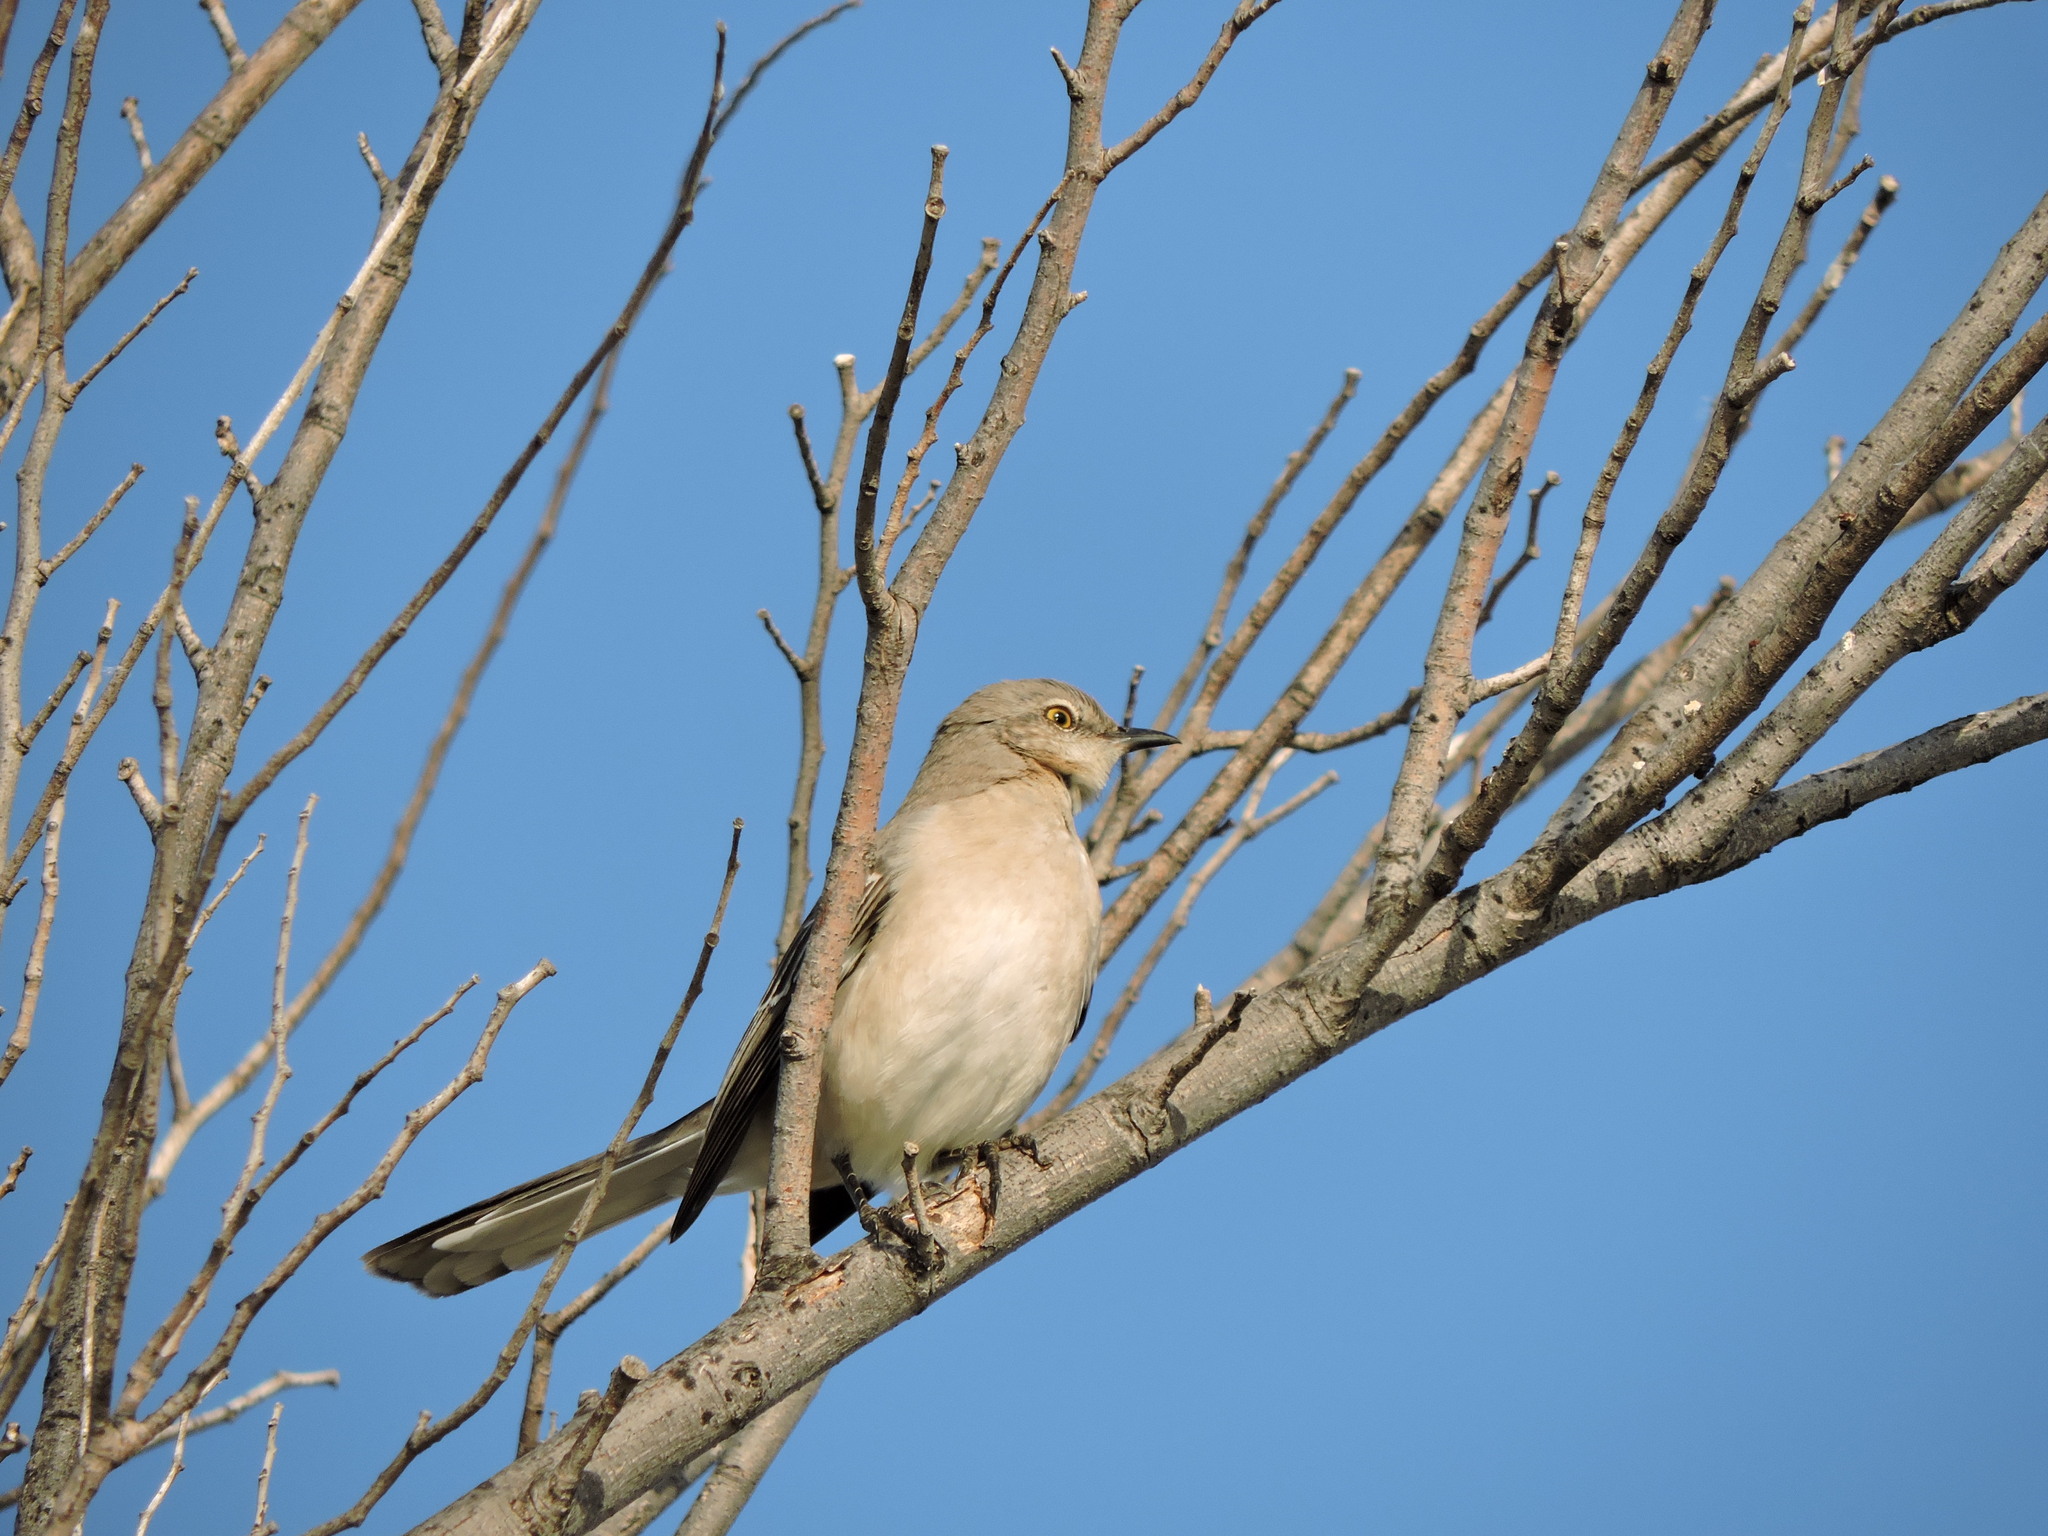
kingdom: Animalia
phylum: Chordata
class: Aves
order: Passeriformes
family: Mimidae
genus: Mimus
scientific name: Mimus polyglottos
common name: Northern mockingbird
